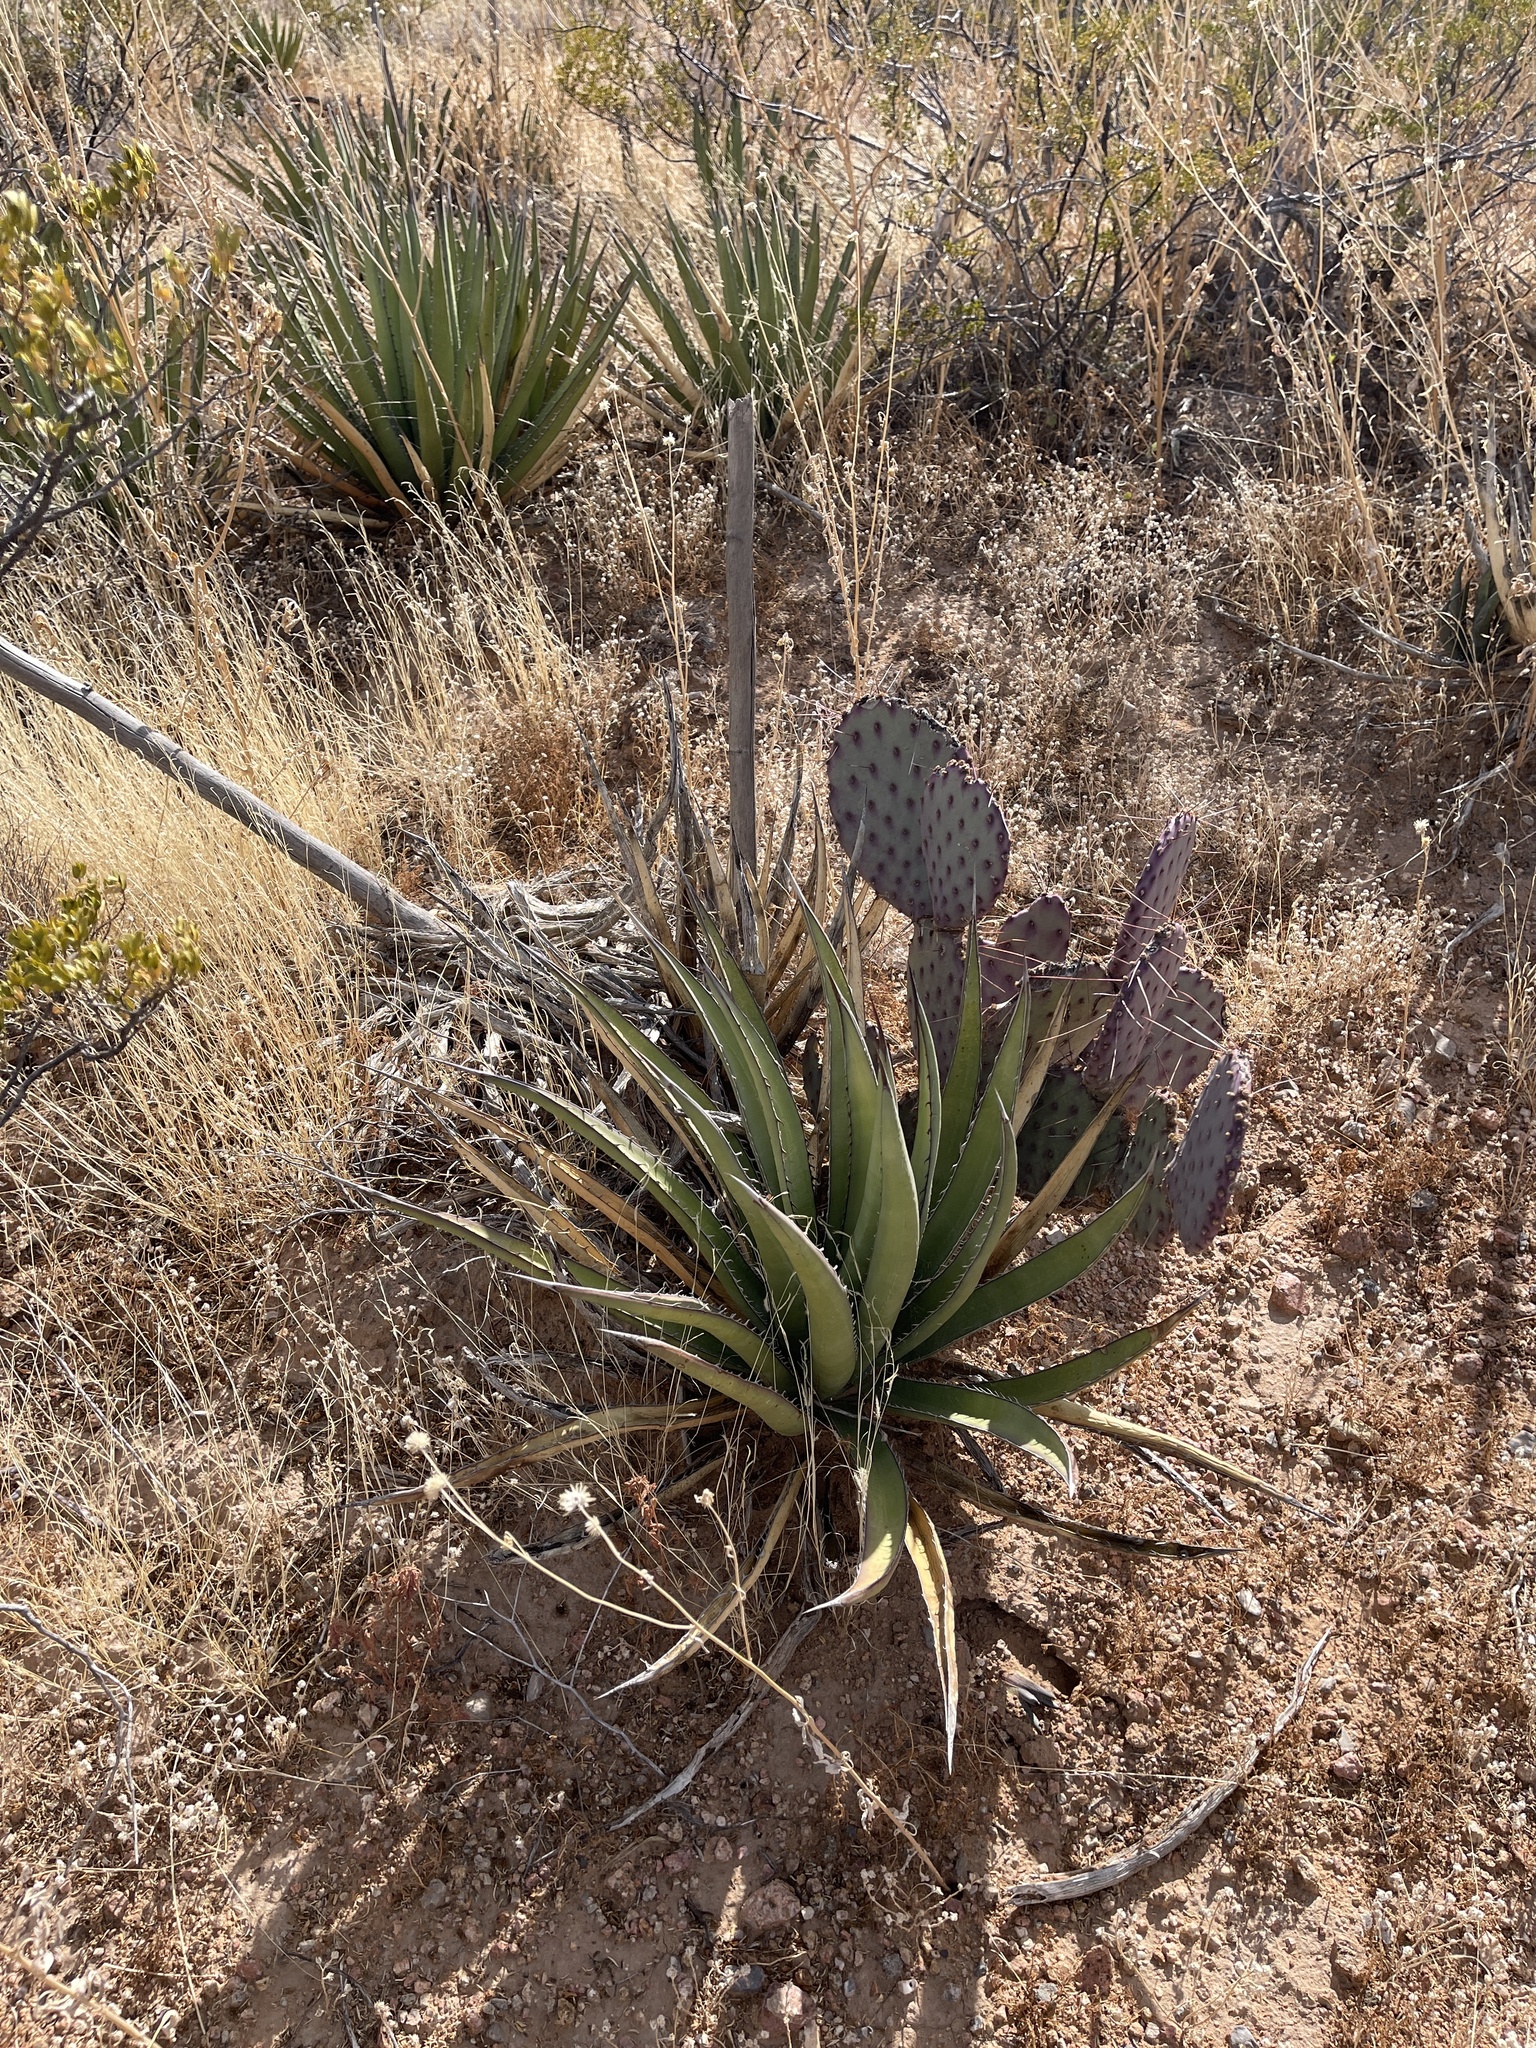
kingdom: Plantae
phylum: Tracheophyta
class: Liliopsida
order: Asparagales
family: Asparagaceae
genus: Agave
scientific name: Agave lechuguilla
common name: Lecheguilla agave
